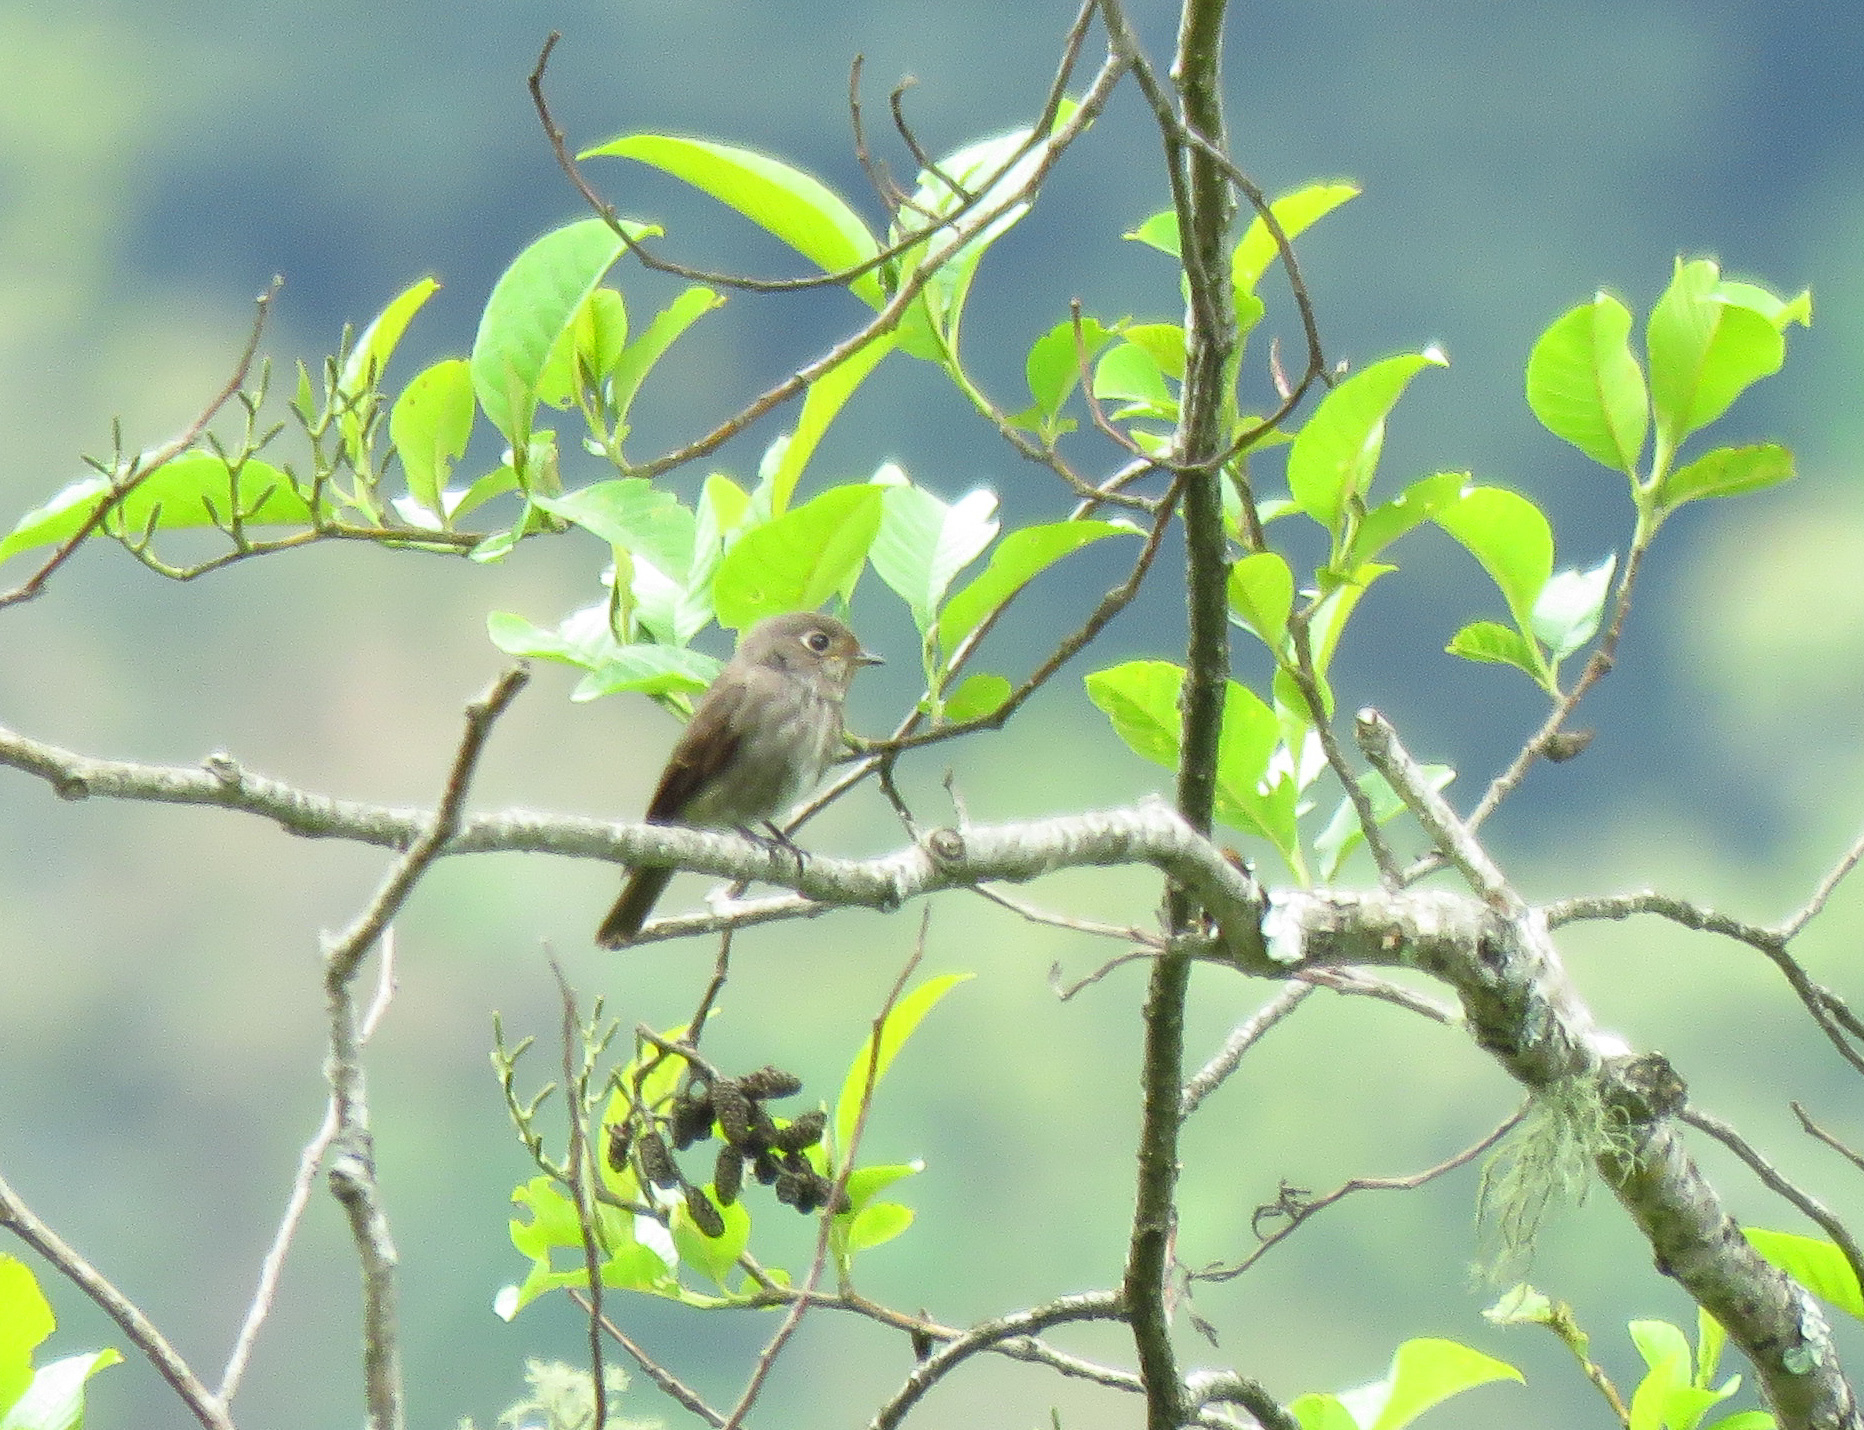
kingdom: Animalia
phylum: Chordata
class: Aves
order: Passeriformes
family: Muscicapidae
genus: Muscicapa
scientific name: Muscicapa sibirica
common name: Dark-sided flycatcher
